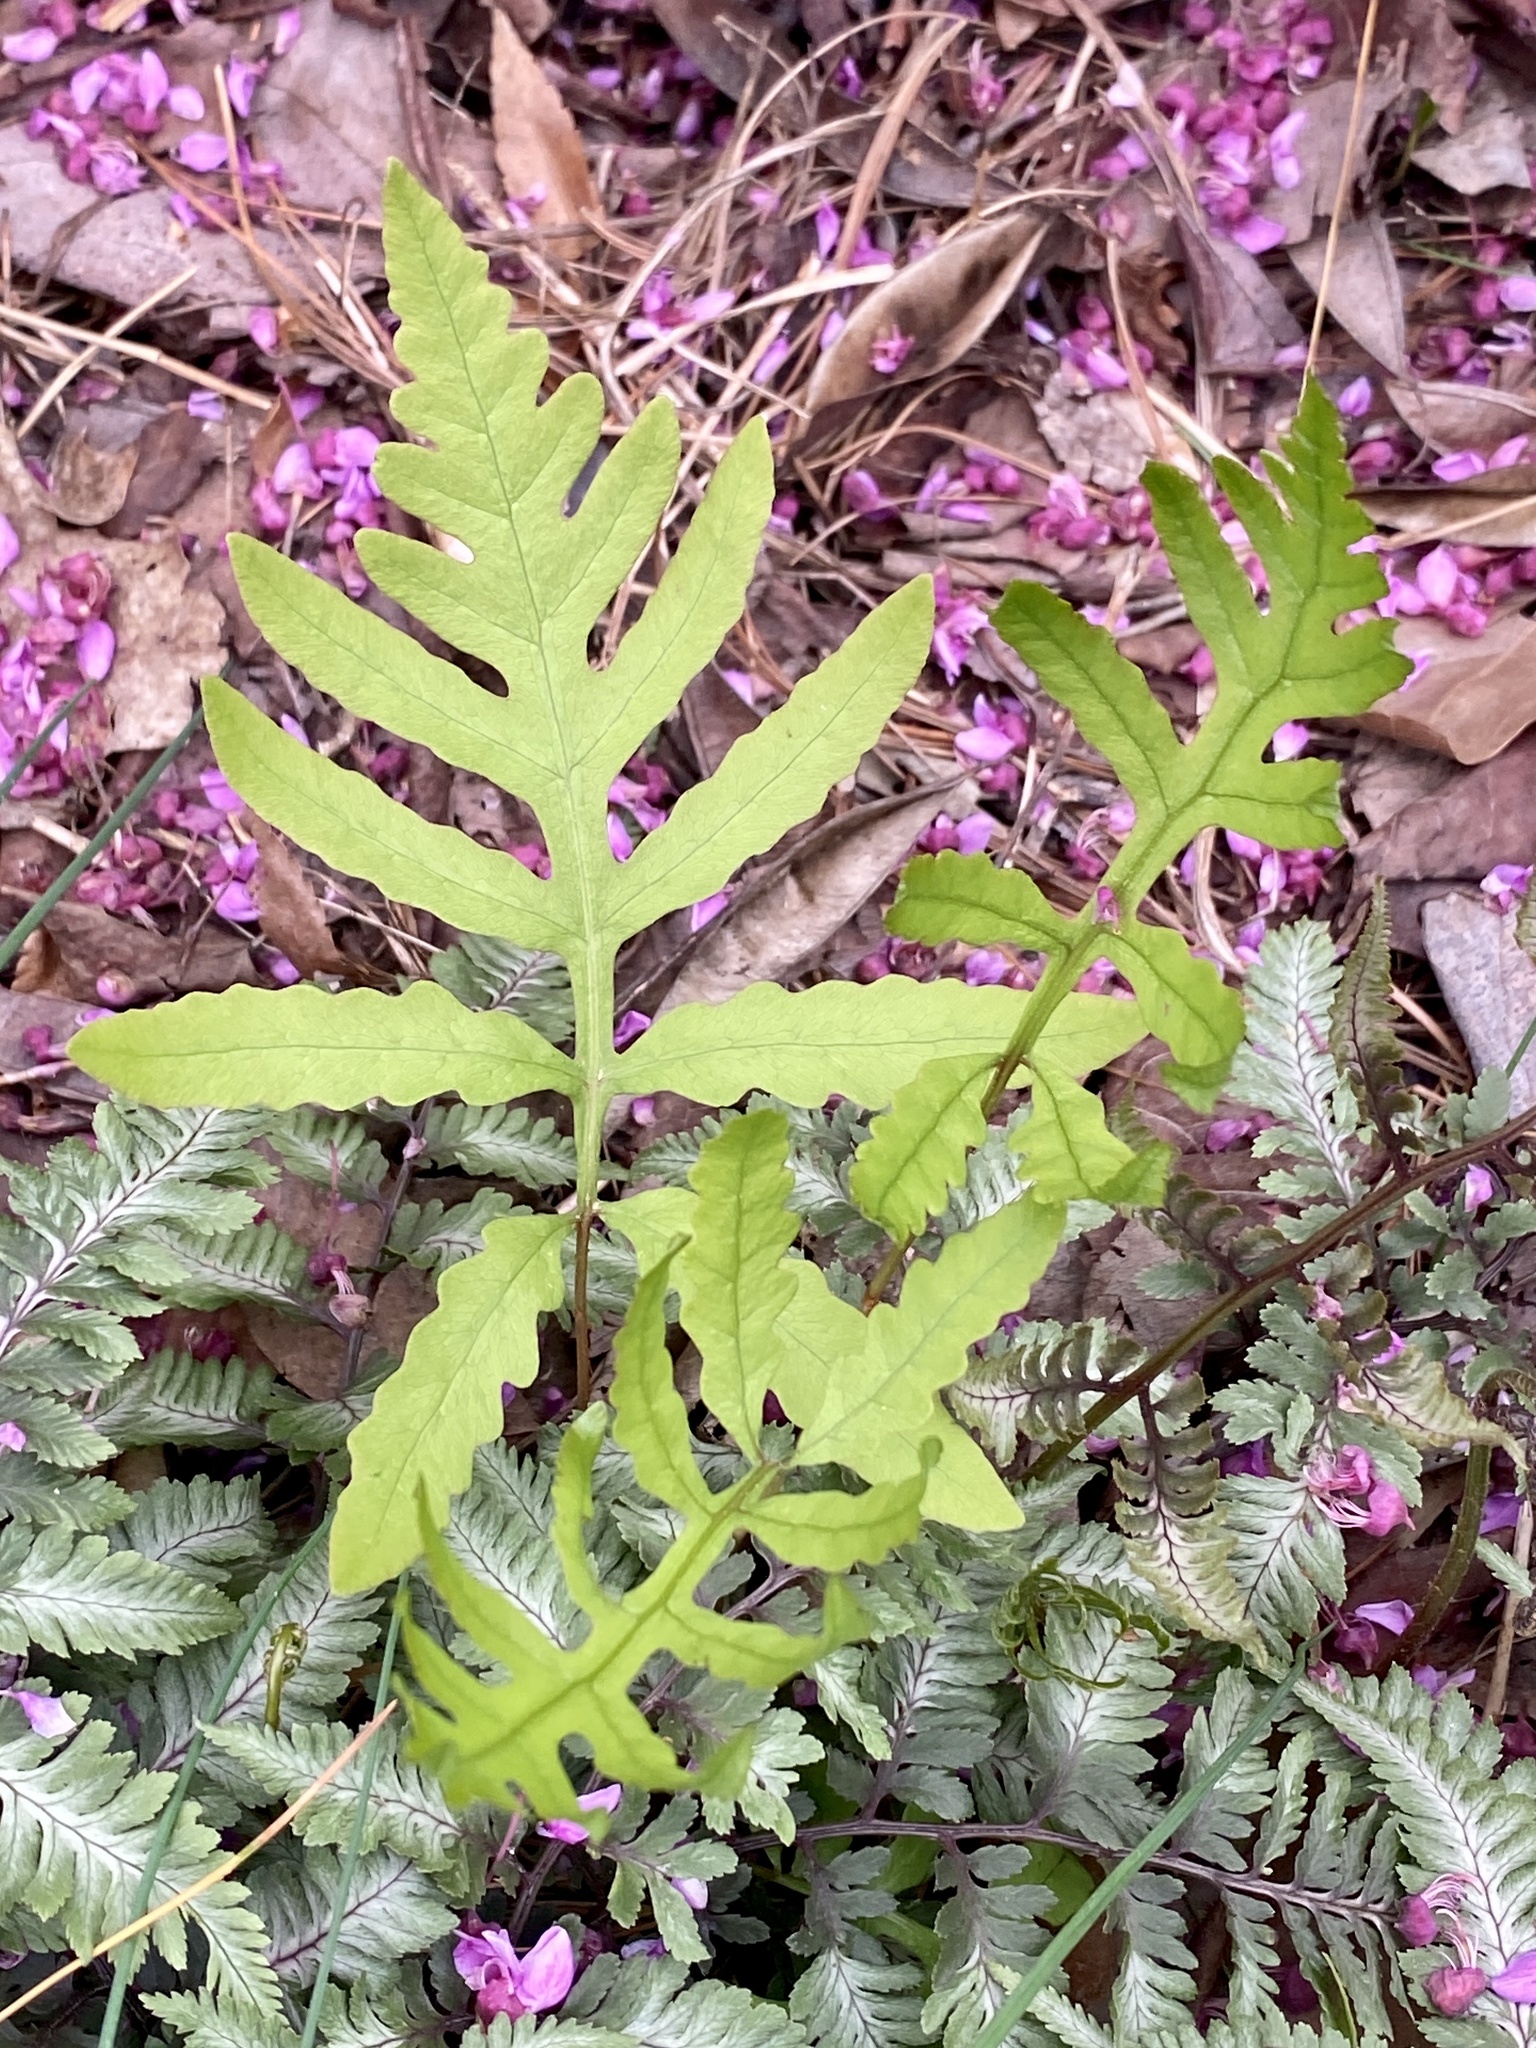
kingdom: Plantae
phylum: Tracheophyta
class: Polypodiopsida
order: Polypodiales
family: Onocleaceae
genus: Onoclea
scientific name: Onoclea sensibilis
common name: Sensitive fern
